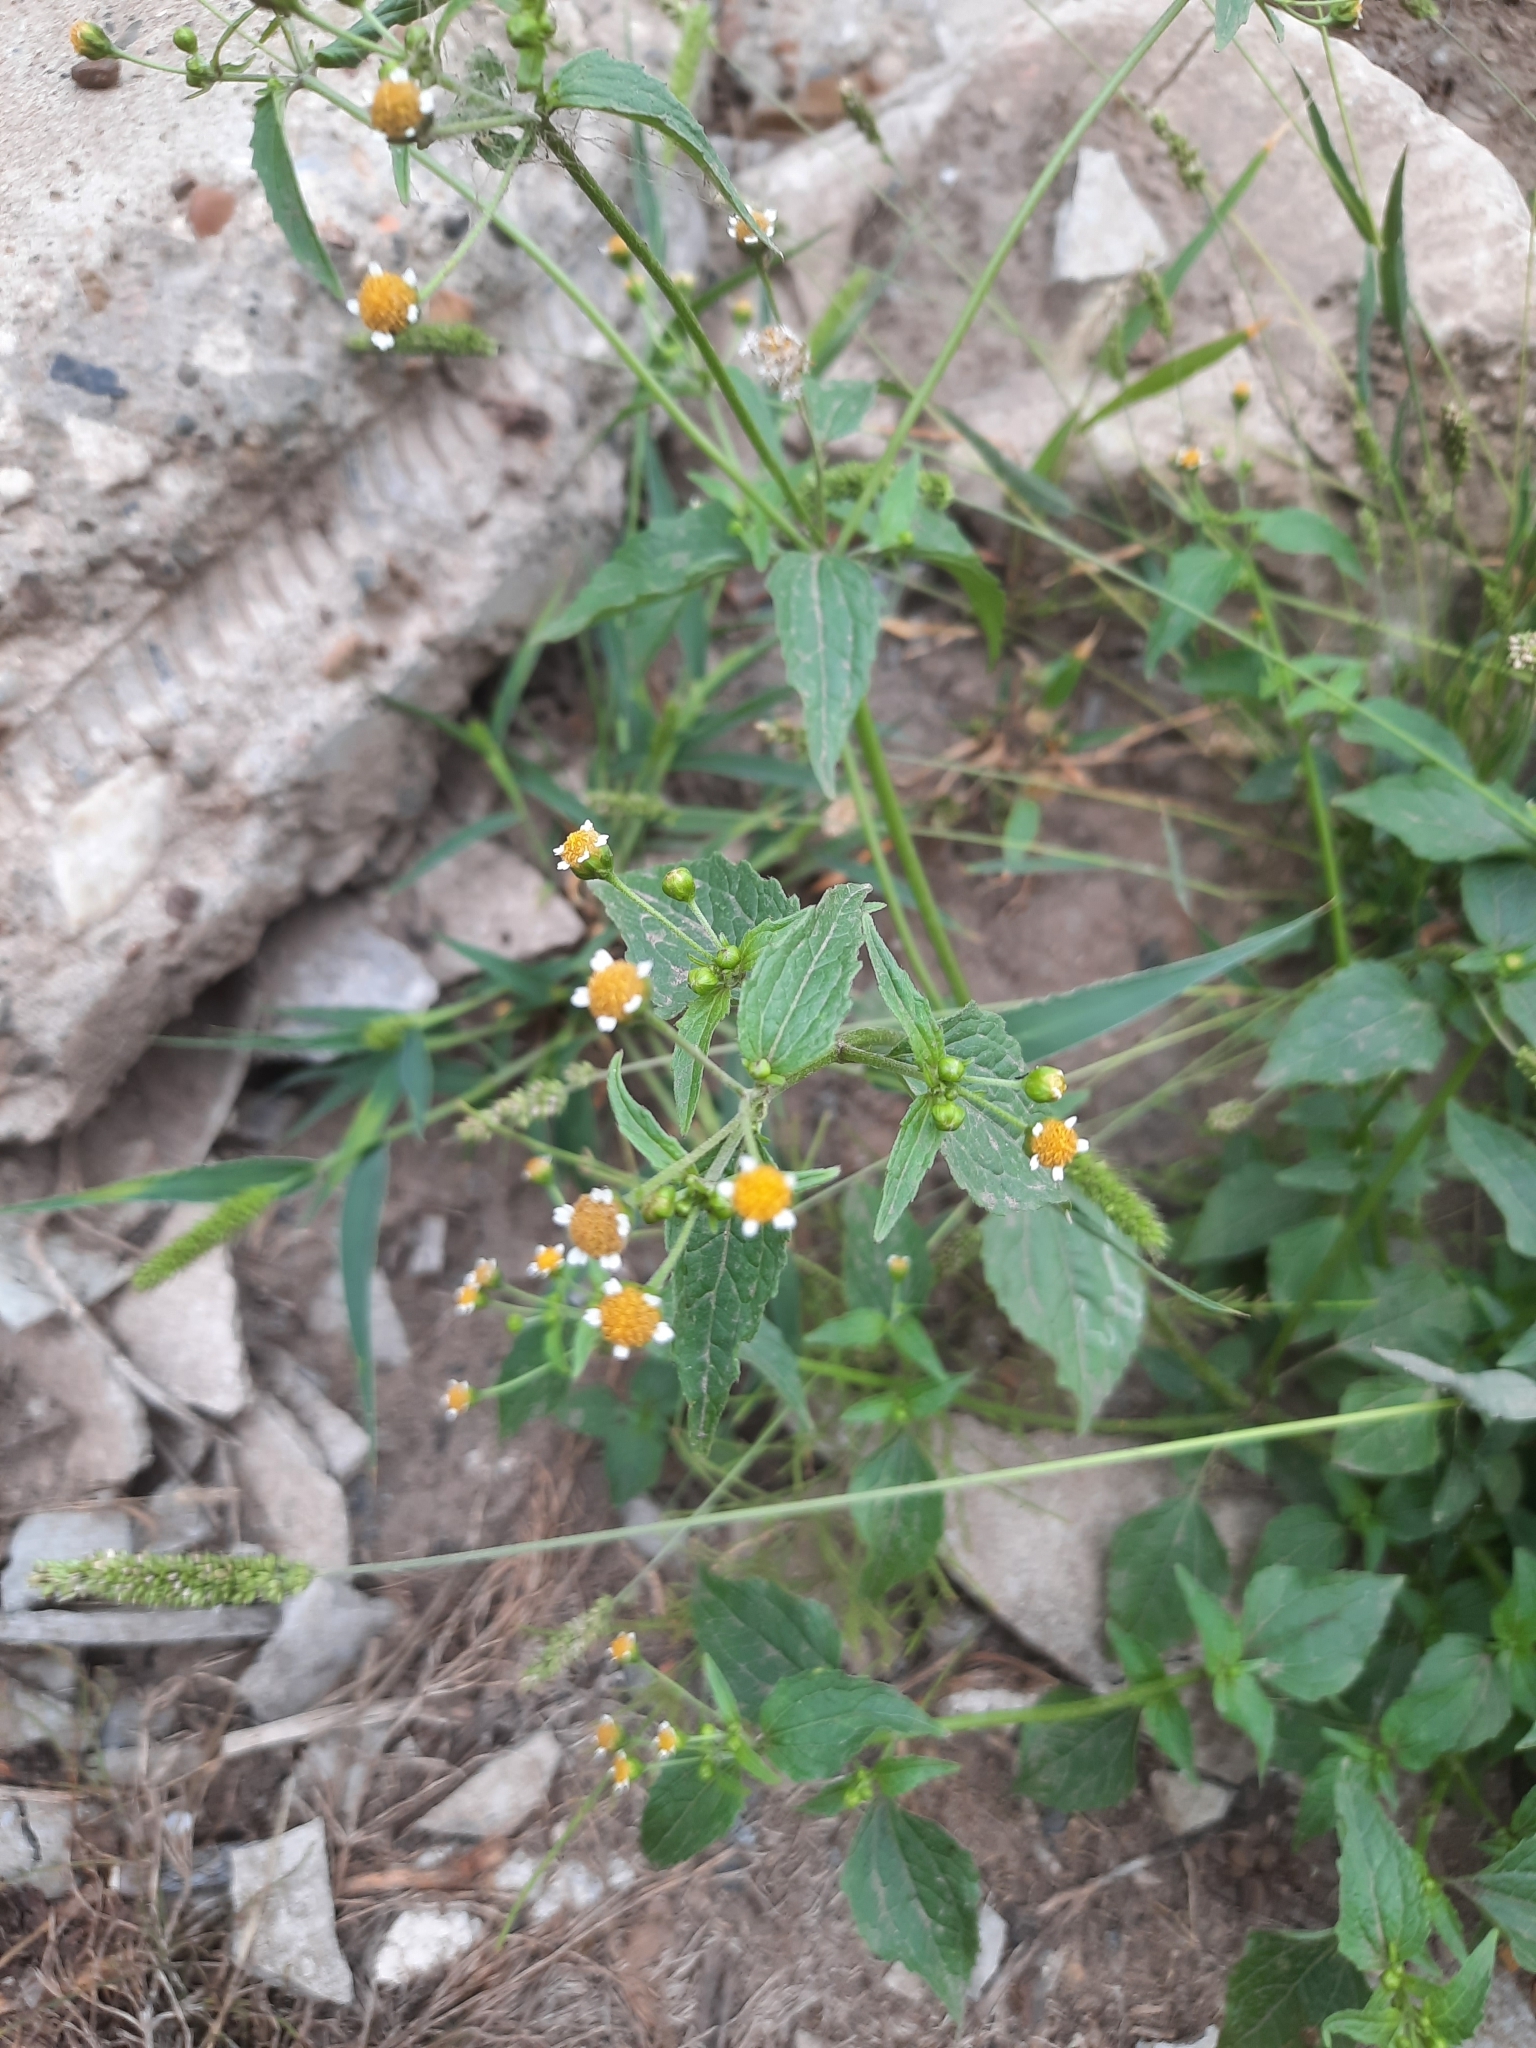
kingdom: Plantae
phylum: Tracheophyta
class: Magnoliopsida
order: Asterales
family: Asteraceae
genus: Galinsoga
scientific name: Galinsoga parviflora
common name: Gallant soldier
